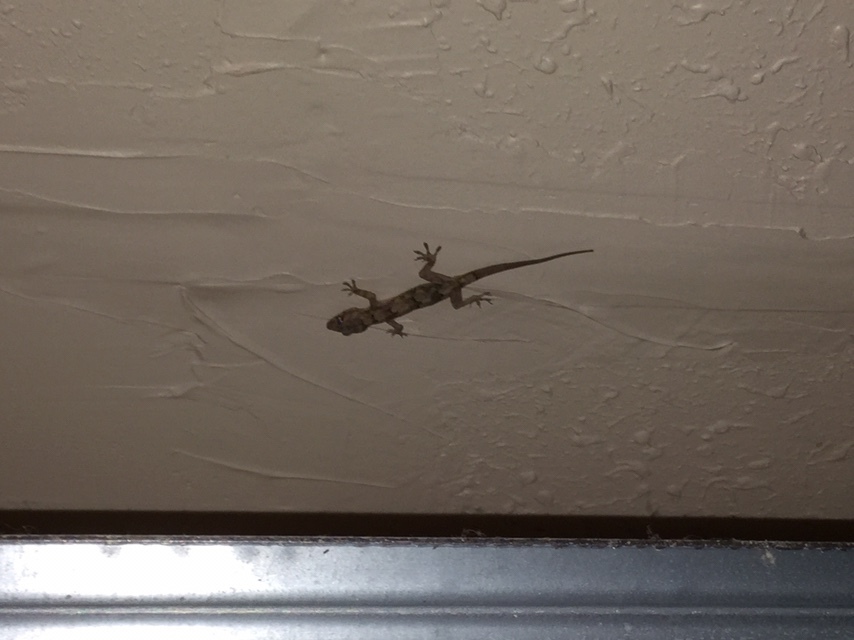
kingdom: Animalia
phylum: Chordata
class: Squamata
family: Gekkonidae
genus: Hemidactylus
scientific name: Hemidactylus mabouia
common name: House gecko
